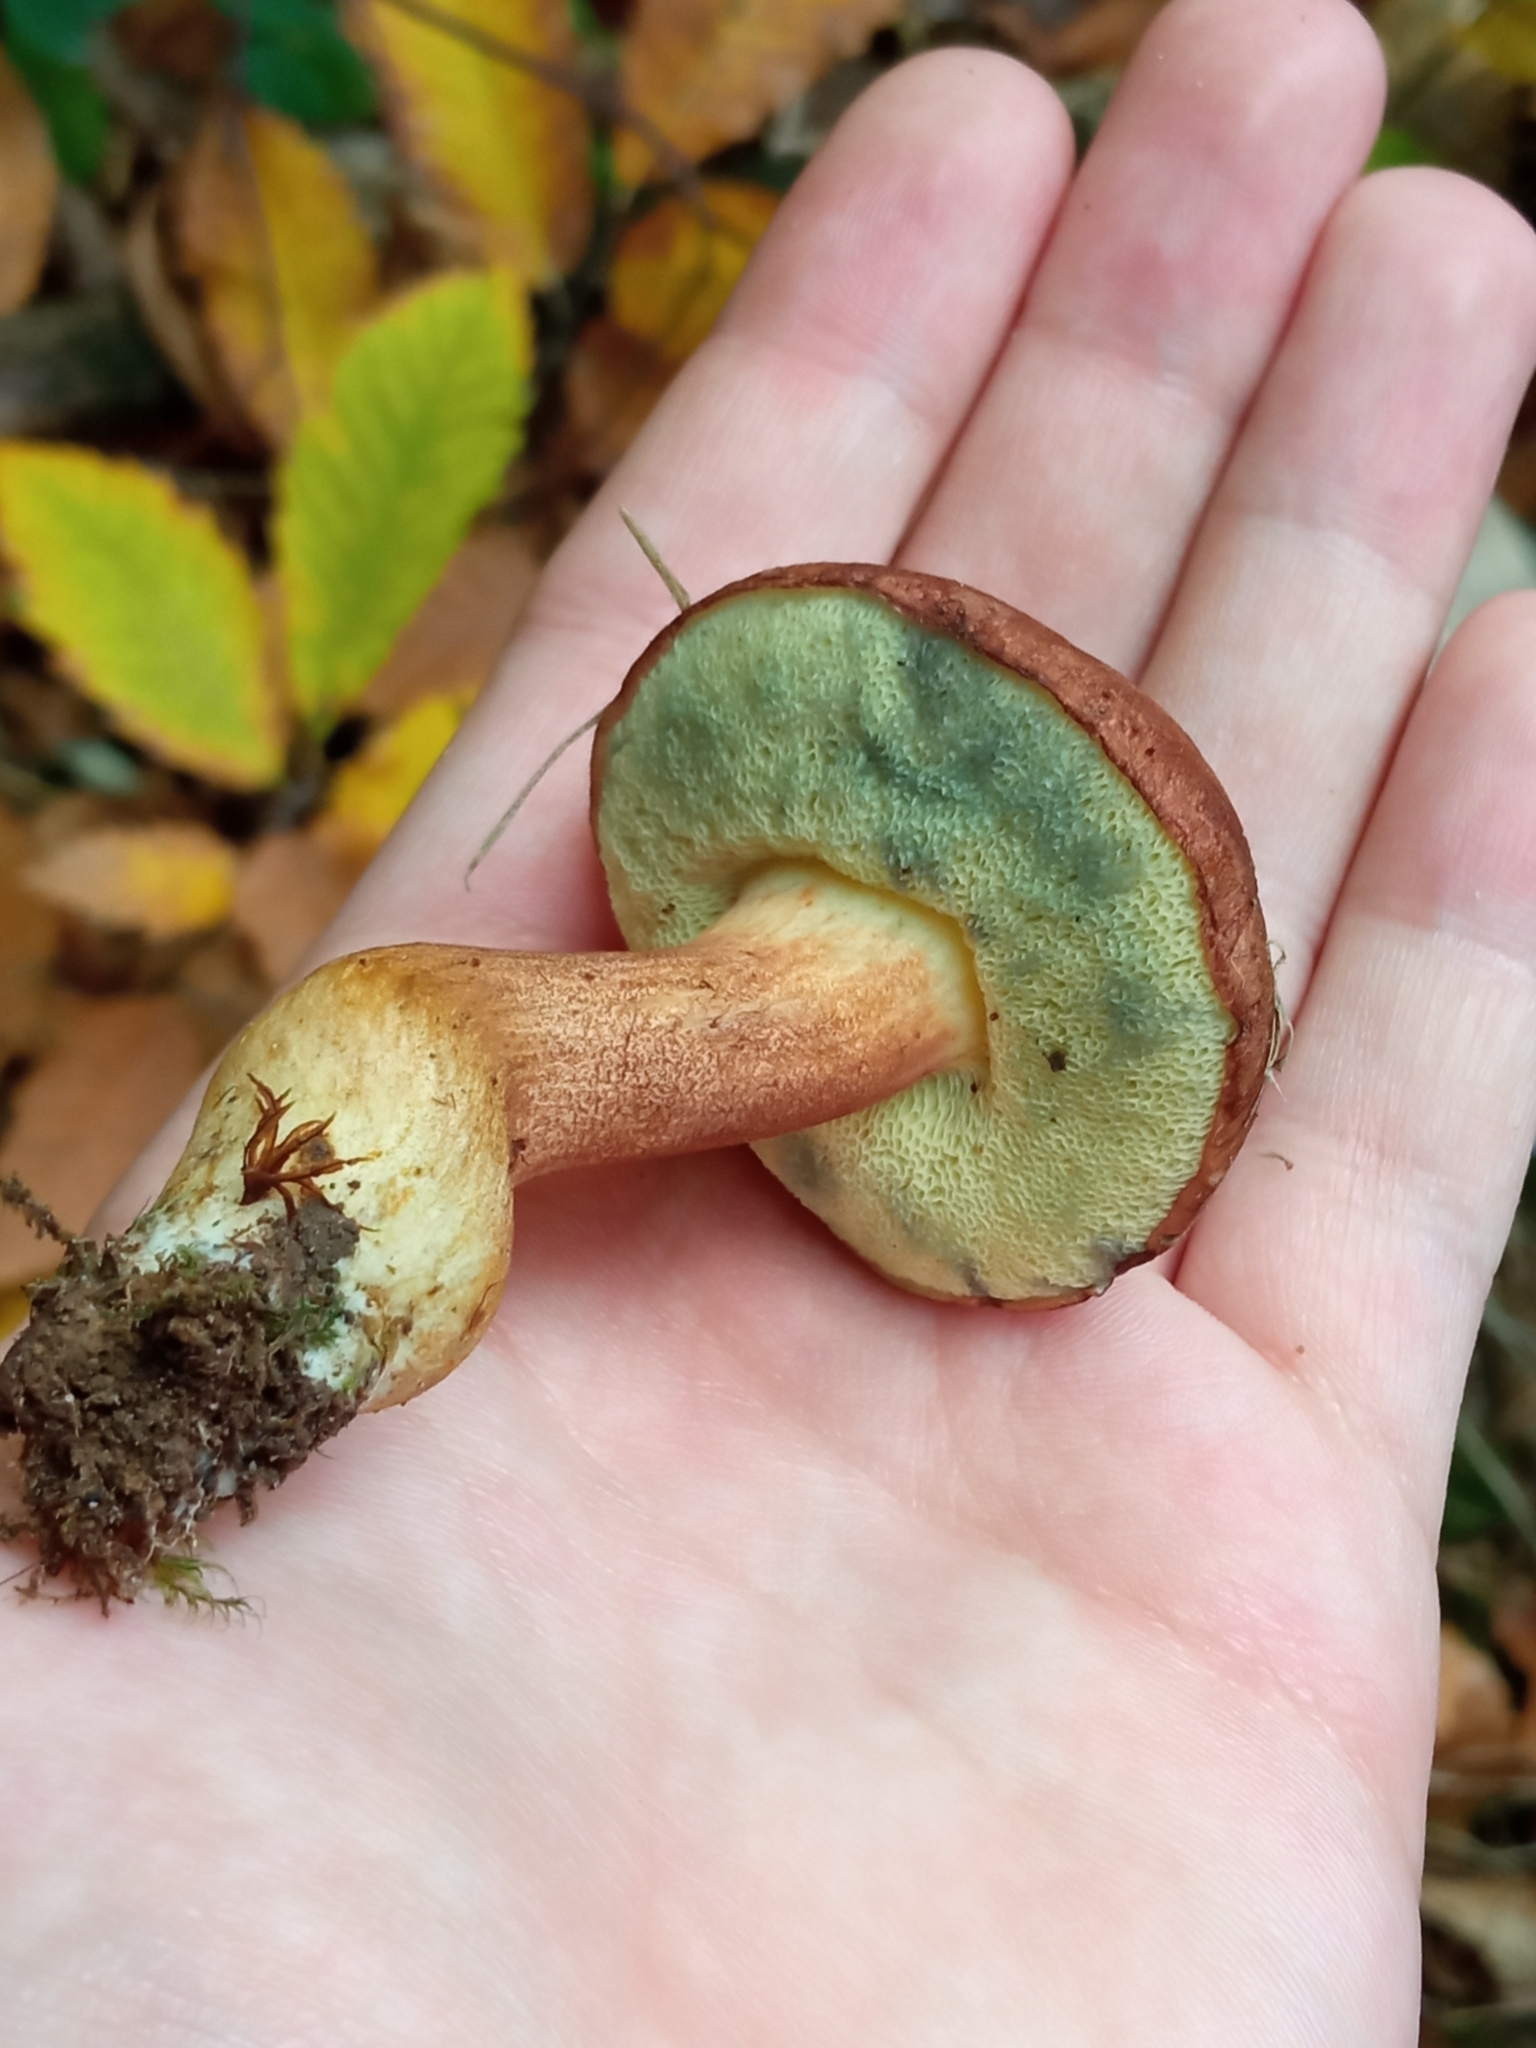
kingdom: Fungi
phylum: Basidiomycota
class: Agaricomycetes
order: Boletales
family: Boletaceae
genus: Imleria
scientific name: Imleria badia
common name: Bay bolete
